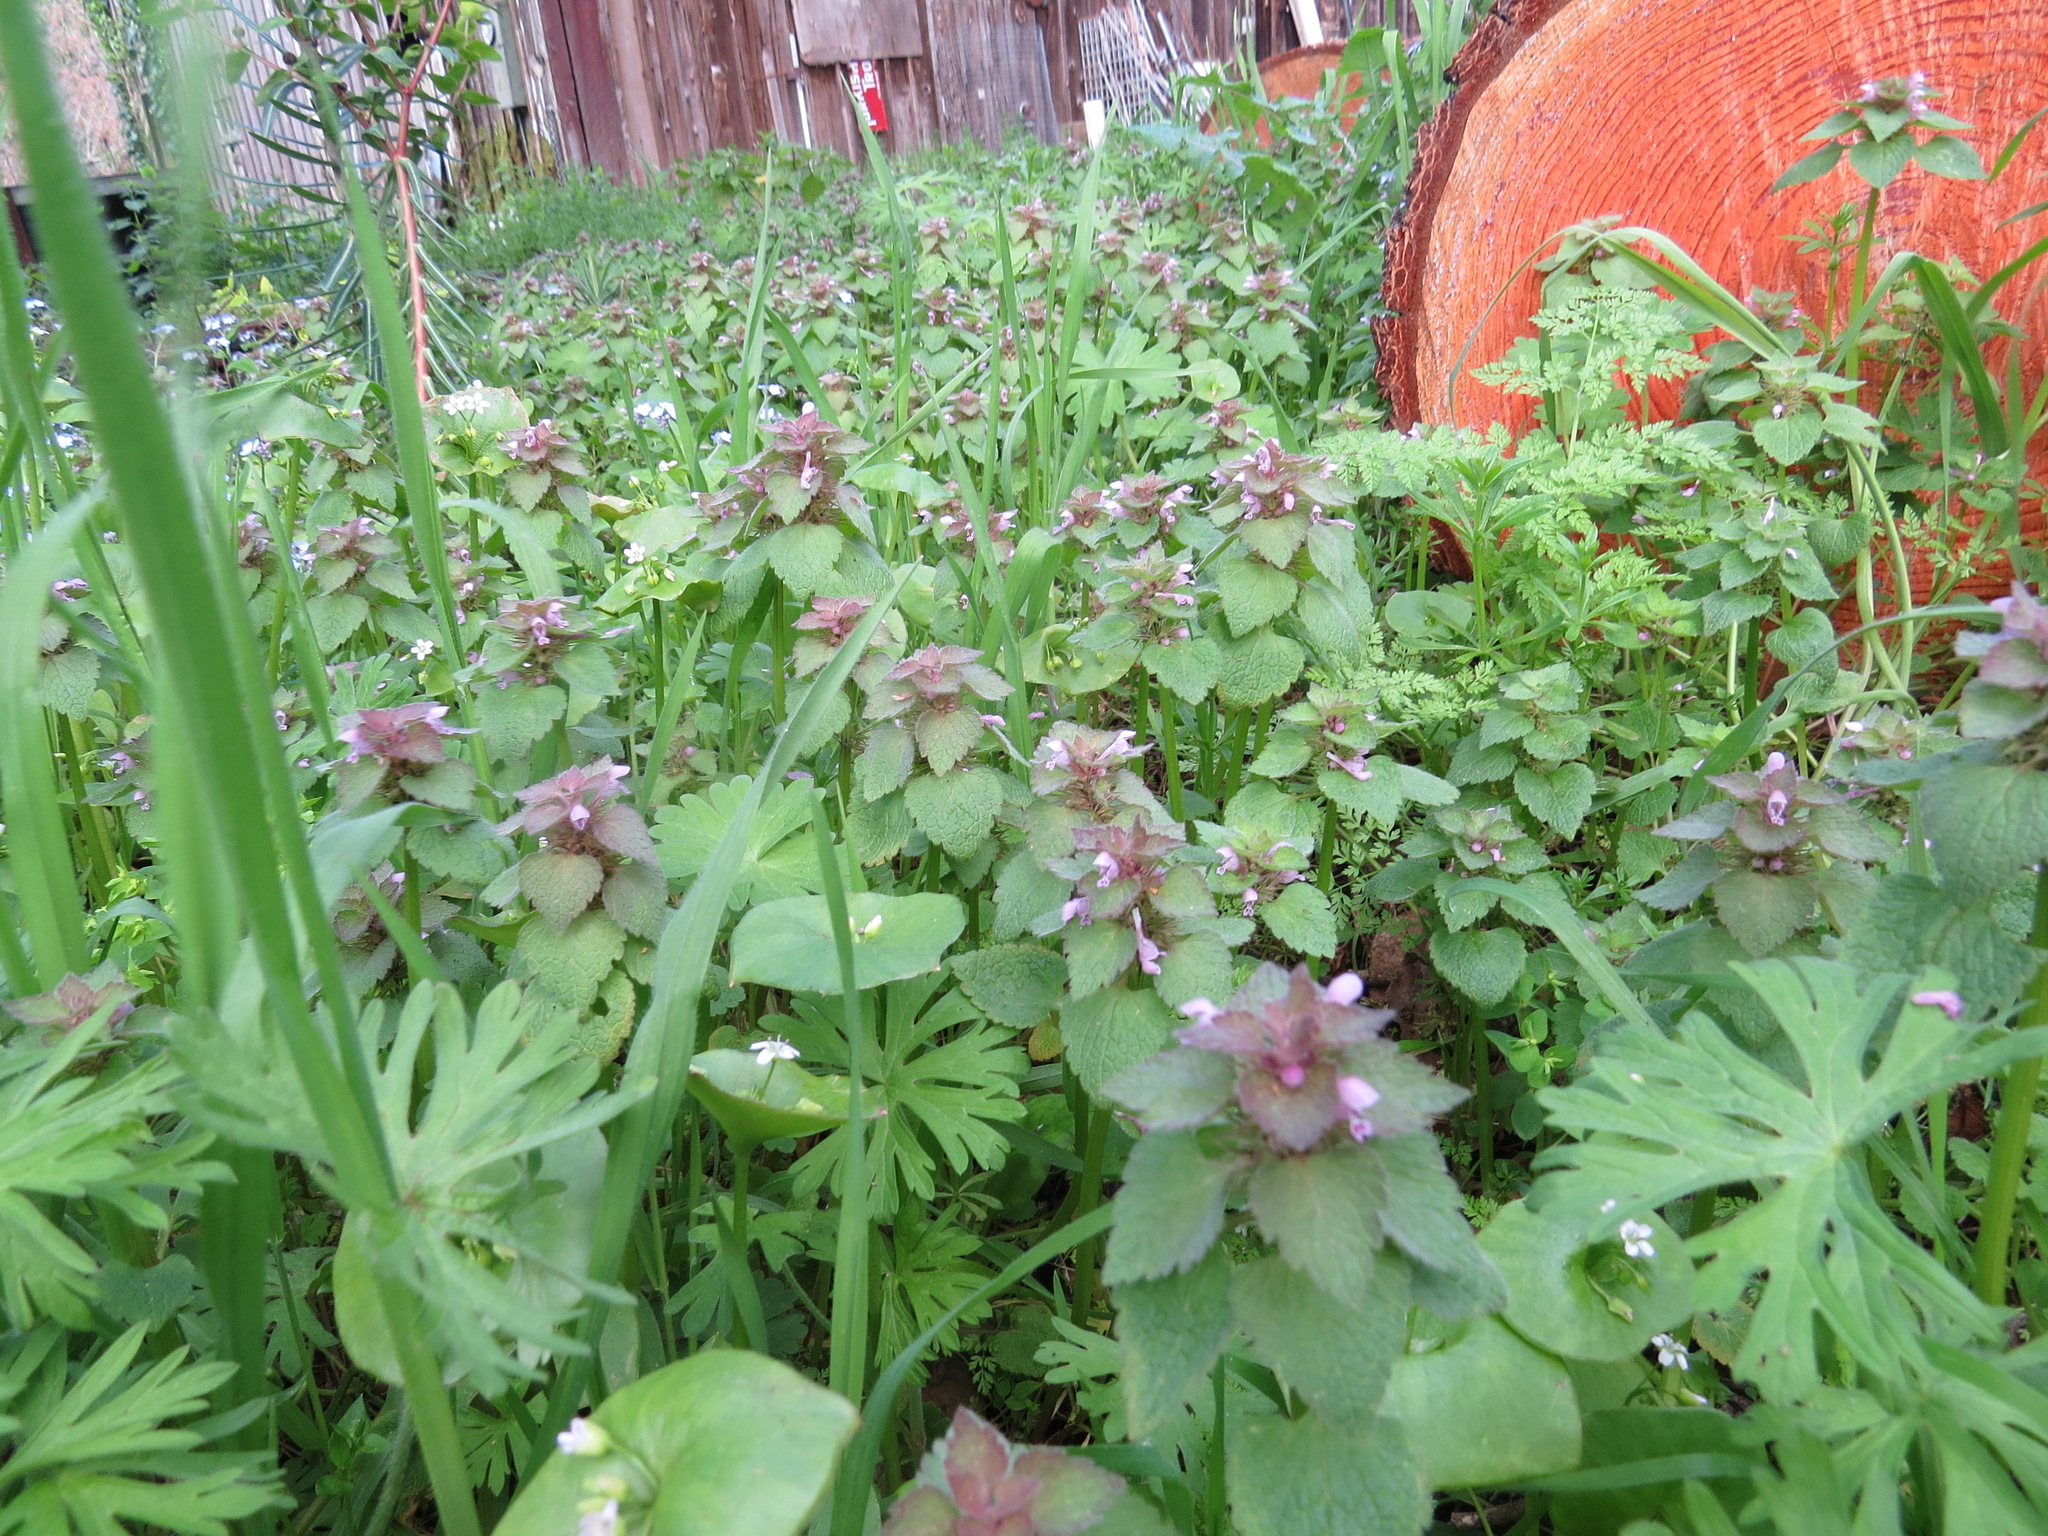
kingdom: Plantae
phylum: Tracheophyta
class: Magnoliopsida
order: Lamiales
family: Lamiaceae
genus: Lamium
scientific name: Lamium purpureum
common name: Red dead-nettle
